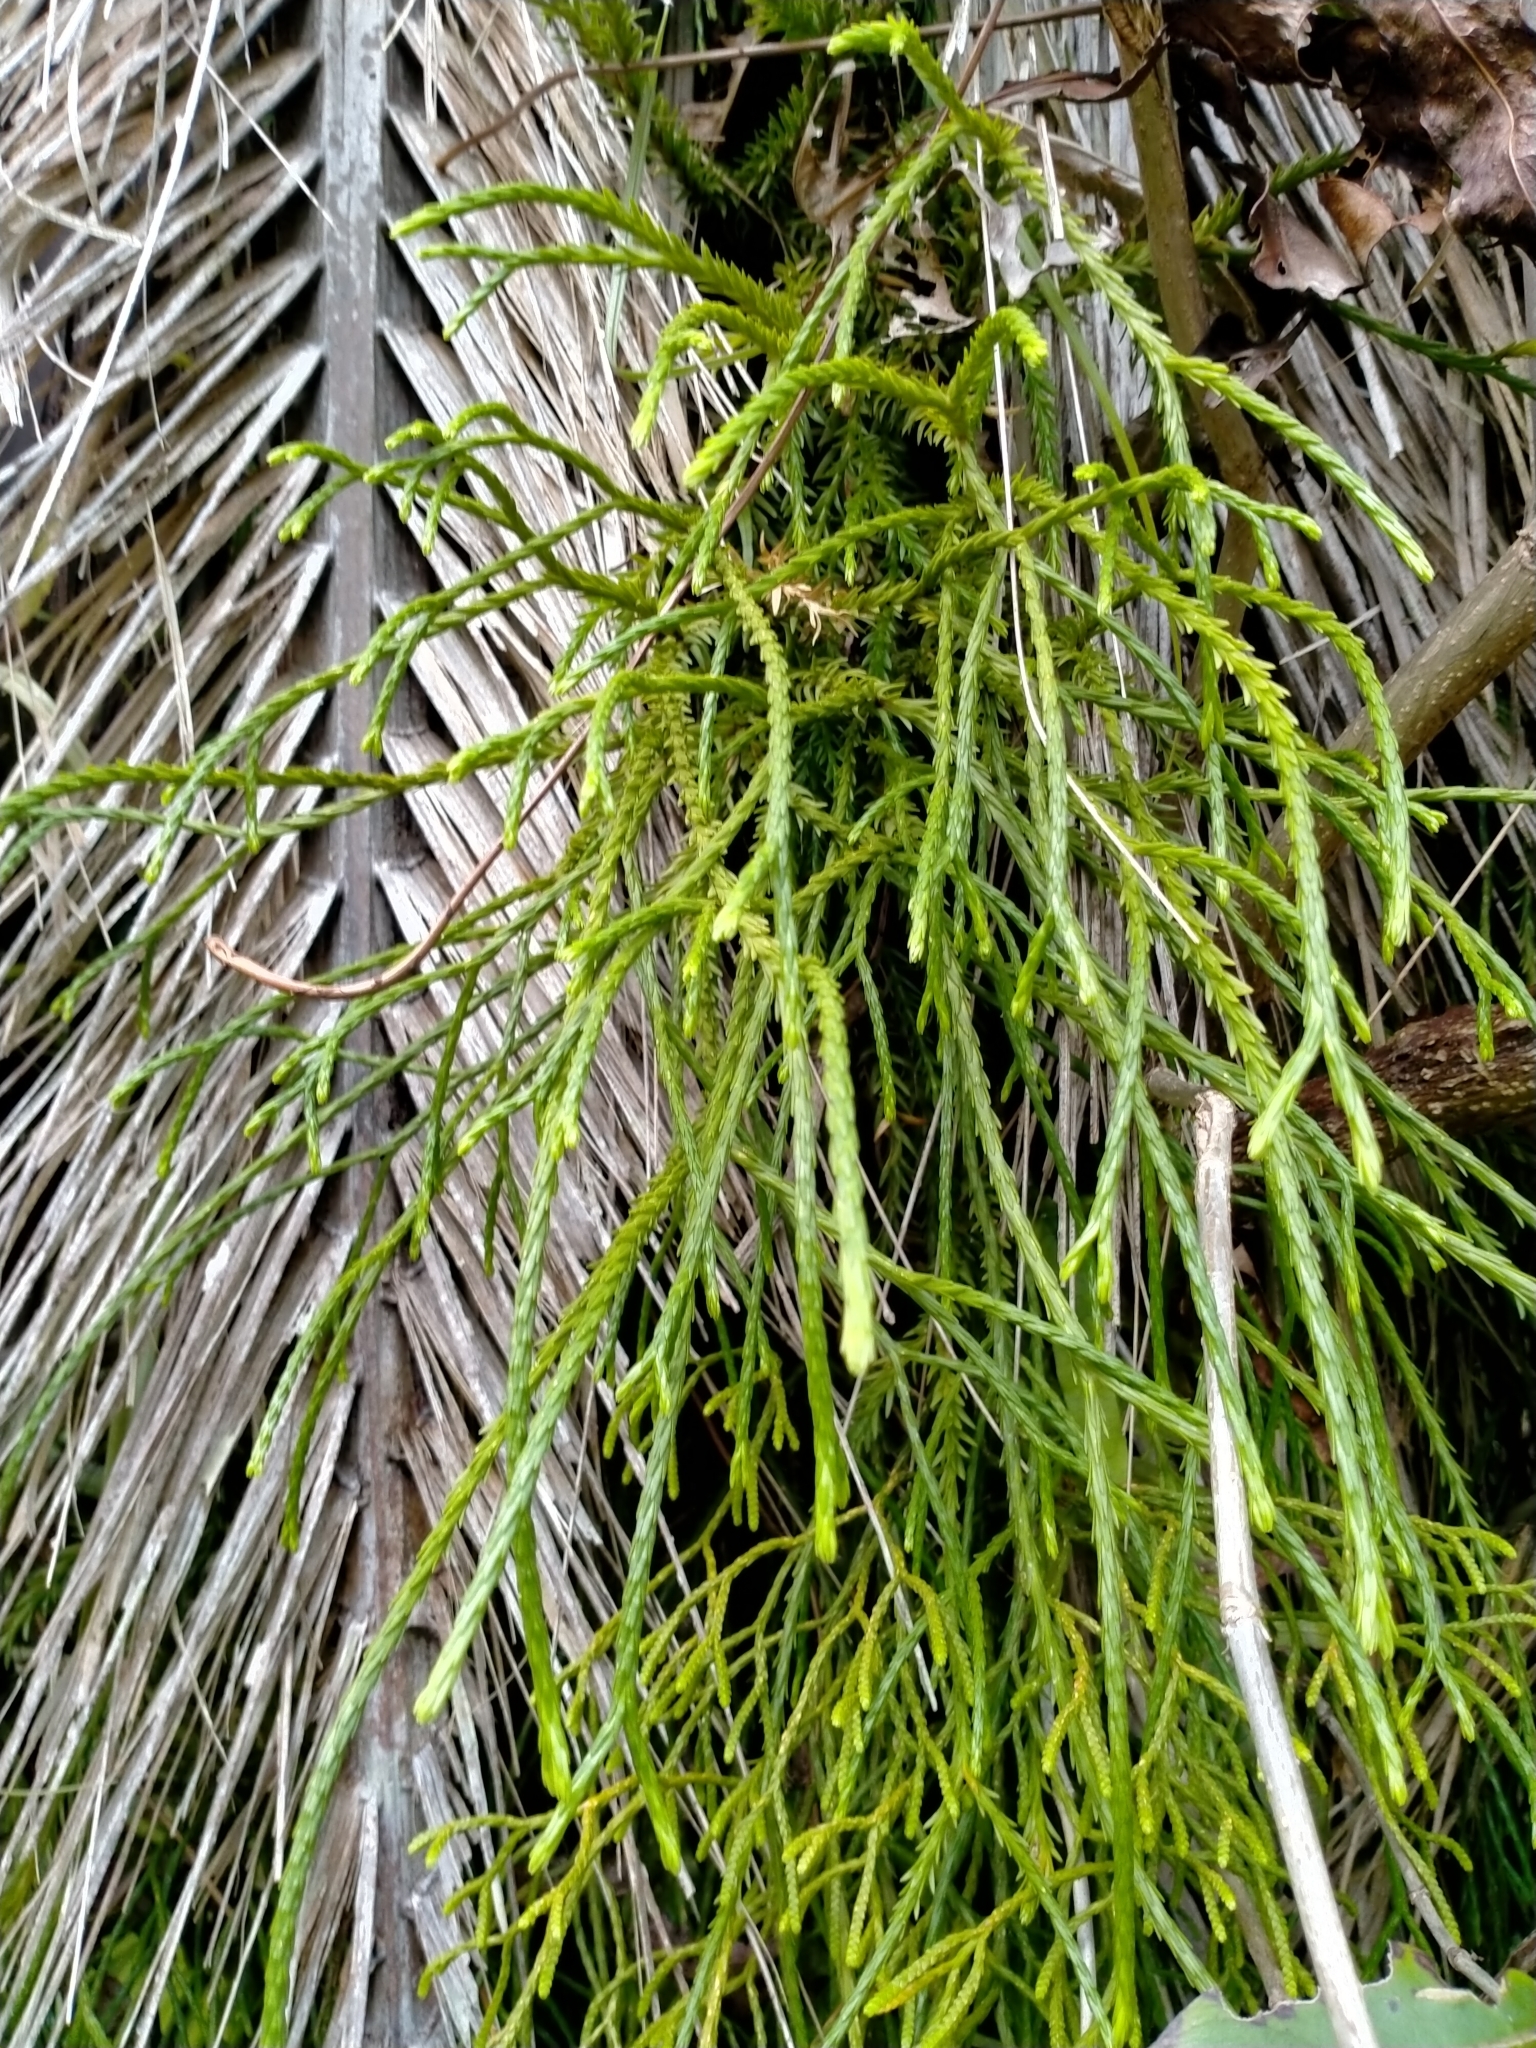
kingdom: Plantae
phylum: Tracheophyta
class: Lycopodiopsida
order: Lycopodiales
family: Lycopodiaceae
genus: Phlegmariurus
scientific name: Phlegmariurus billardierei
